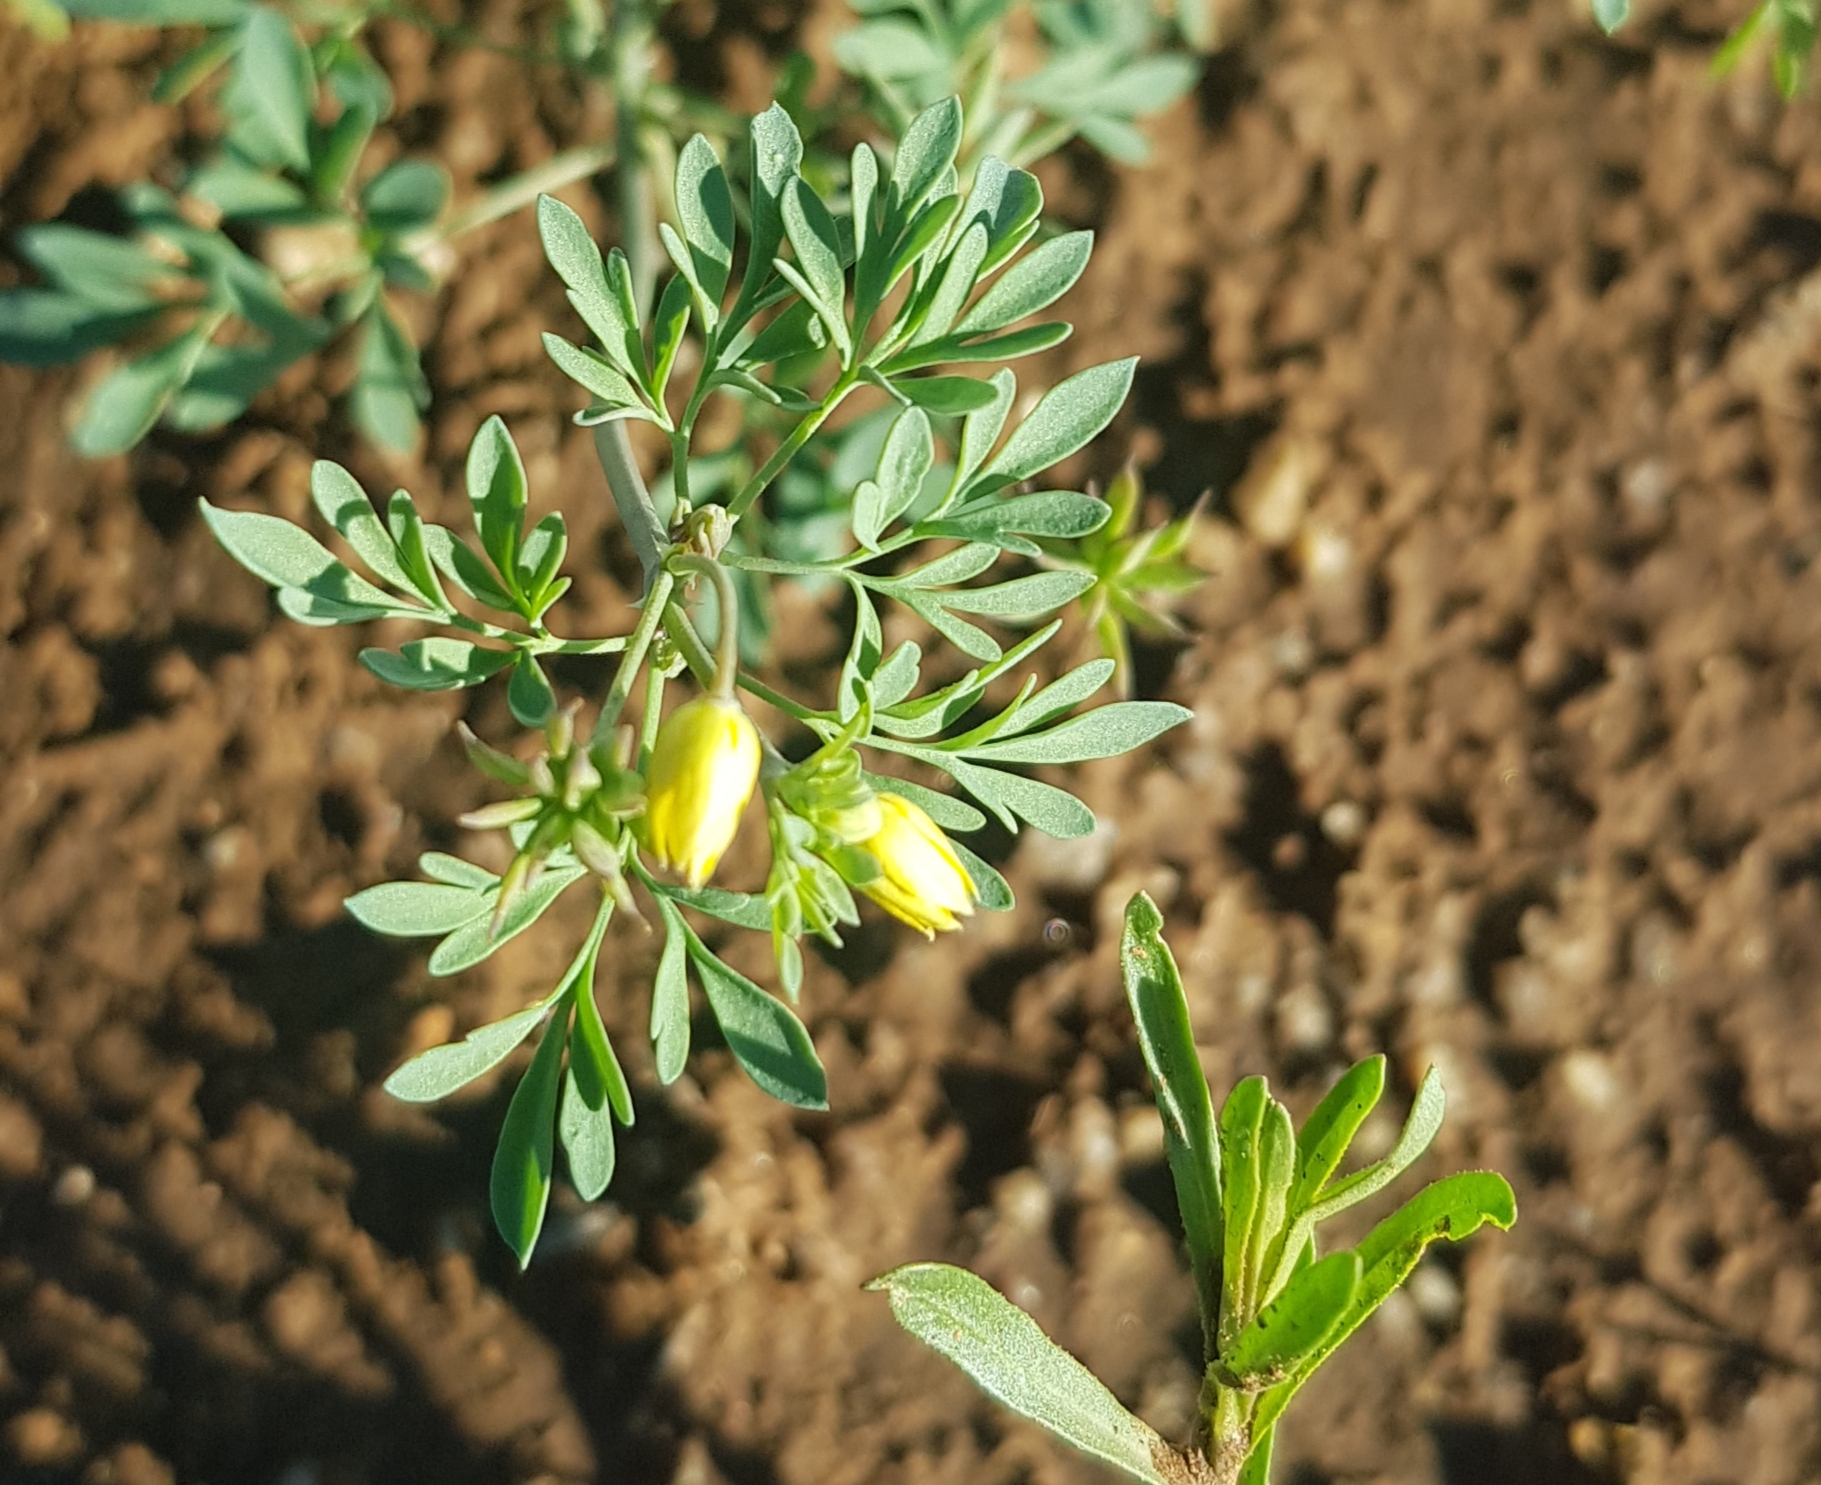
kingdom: Plantae
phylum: Tracheophyta
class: Magnoliopsida
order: Ranunculales
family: Ranunculaceae
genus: Leptopyrum
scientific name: Leptopyrum fumarioides
